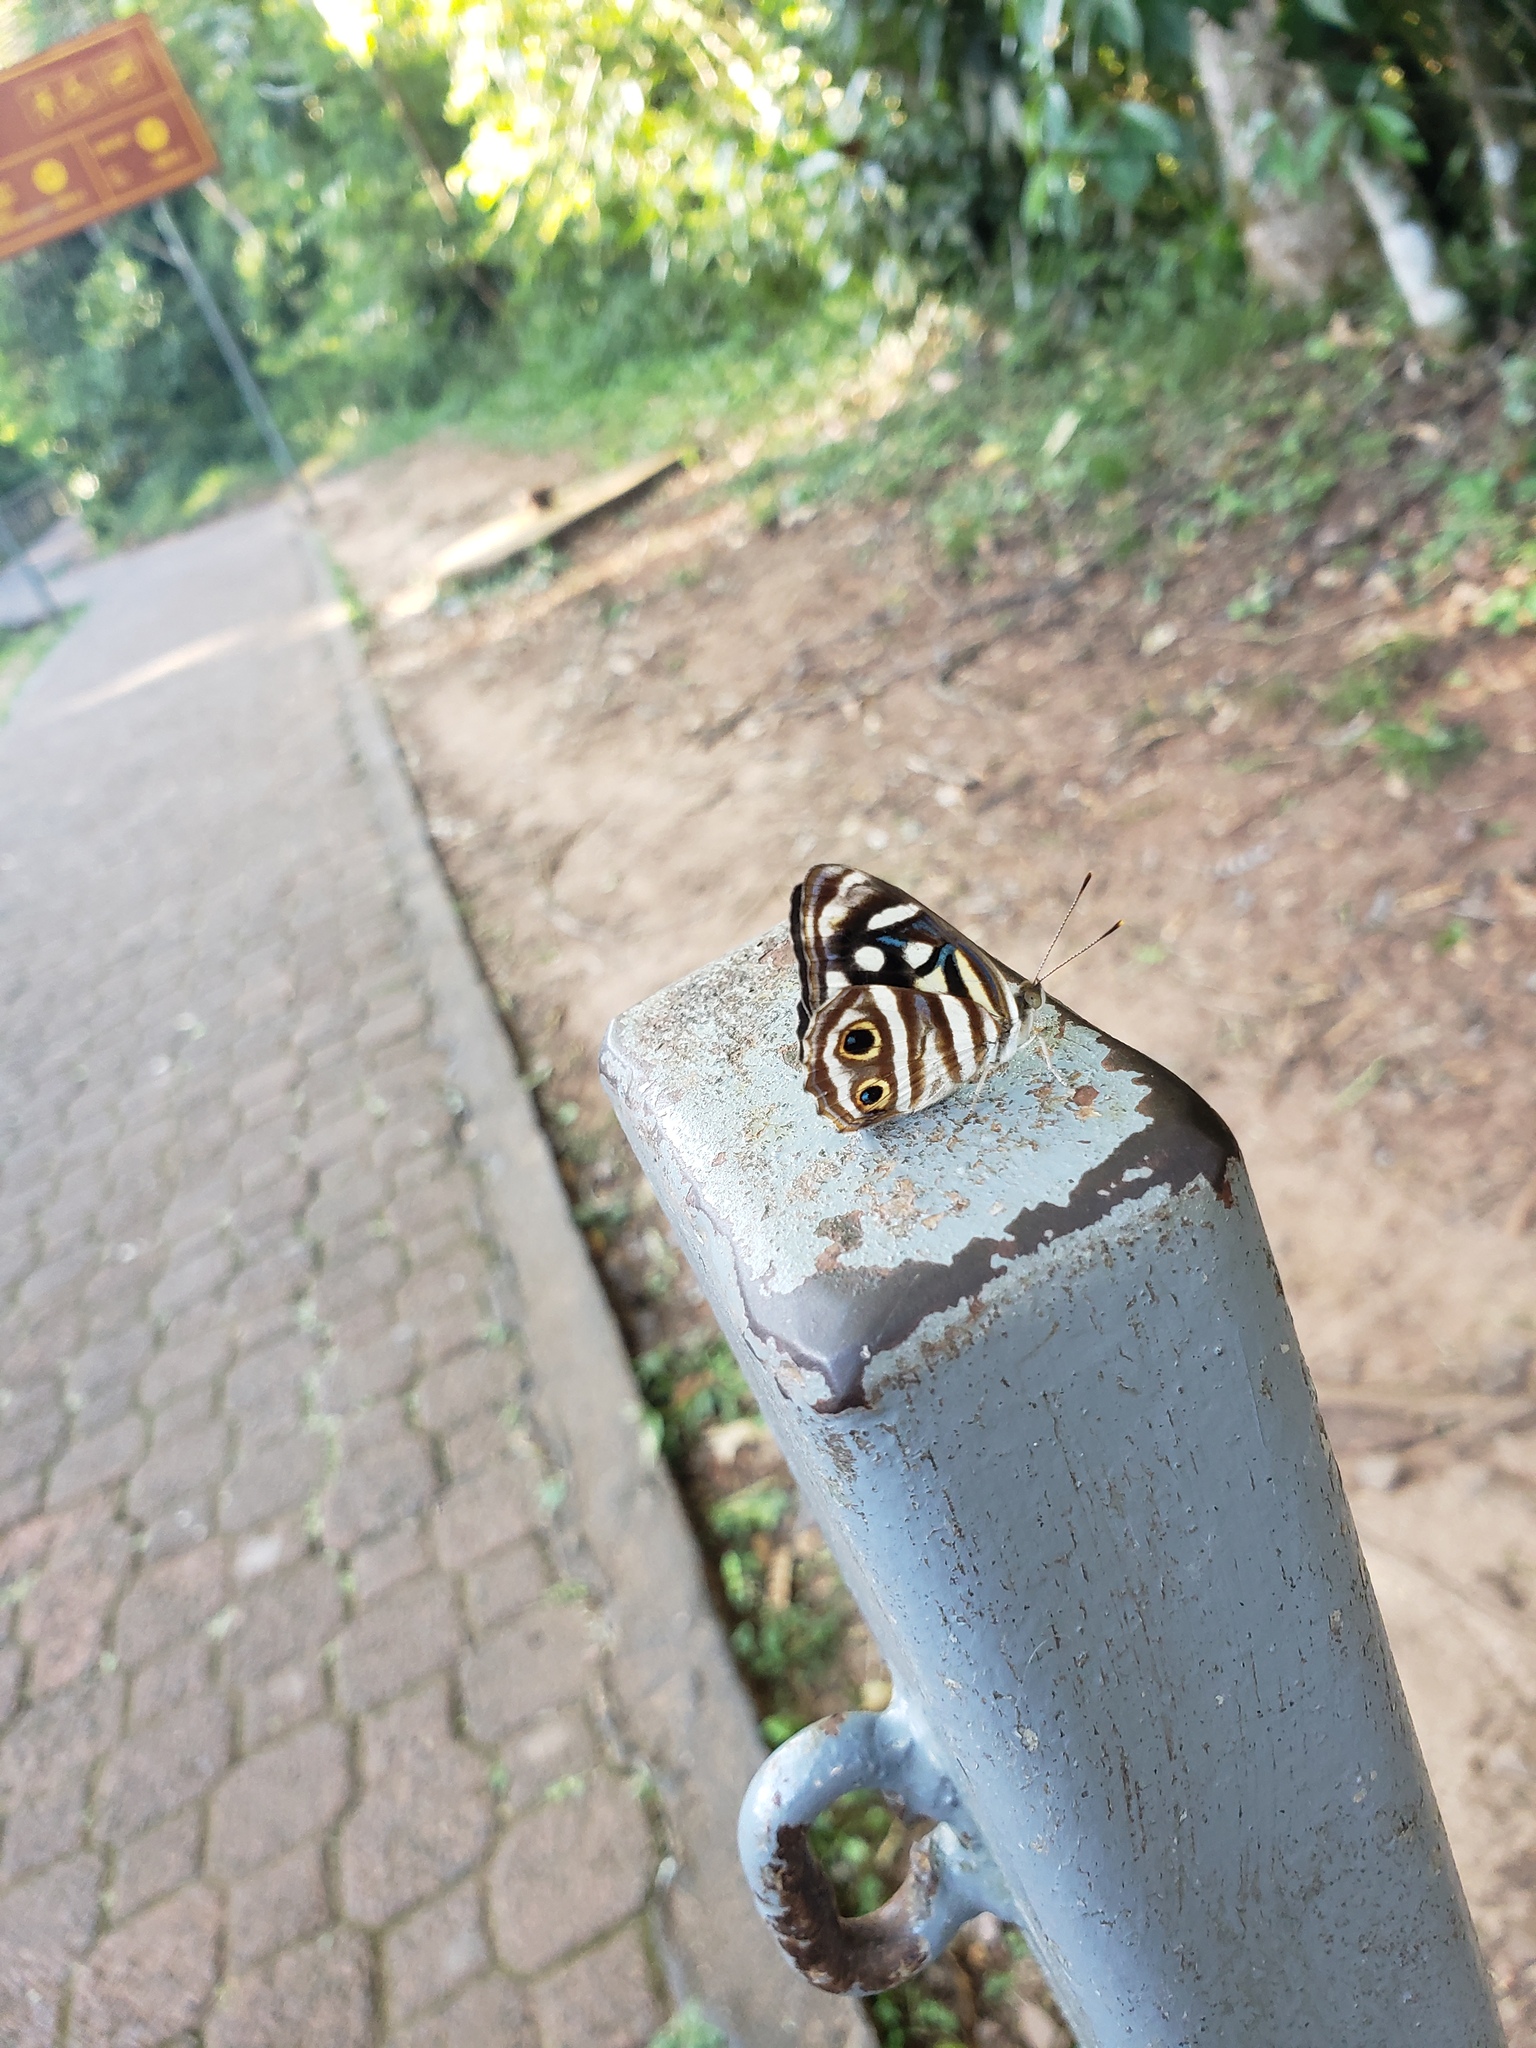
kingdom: Animalia
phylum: Arthropoda
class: Insecta
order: Lepidoptera
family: Nymphalidae
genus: Dynamine
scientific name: Dynamine mylitta
